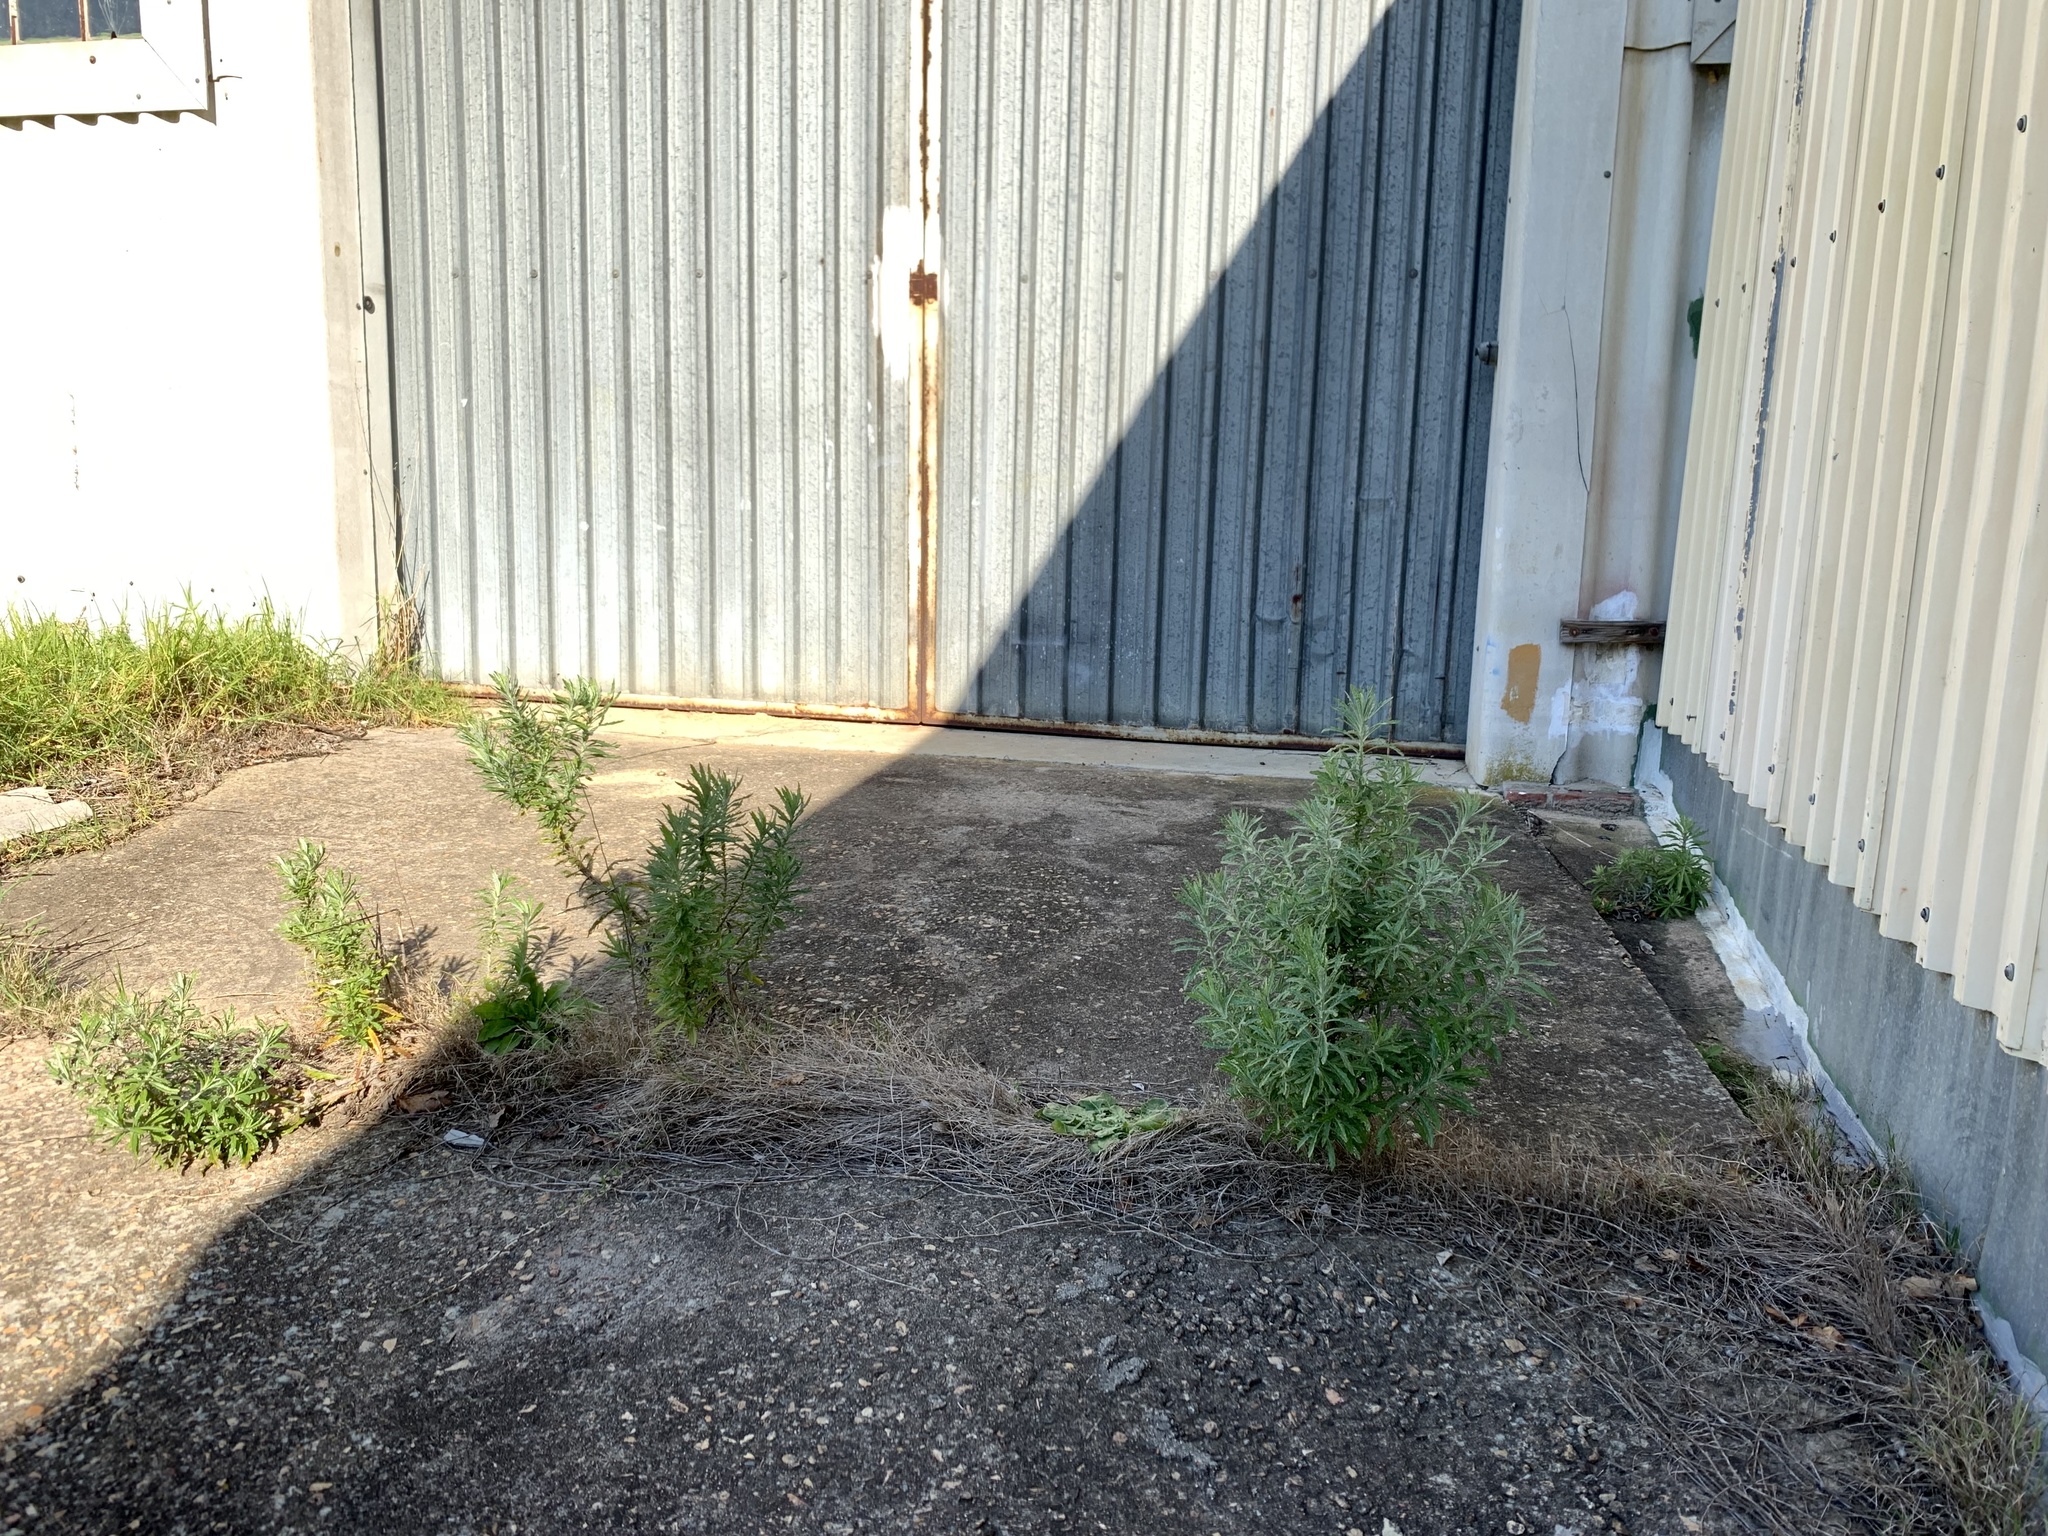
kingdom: Plantae
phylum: Tracheophyta
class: Magnoliopsida
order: Asterales
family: Asteraceae
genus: Senecio
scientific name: Senecio pterophorus
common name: Shoddy ragwort
